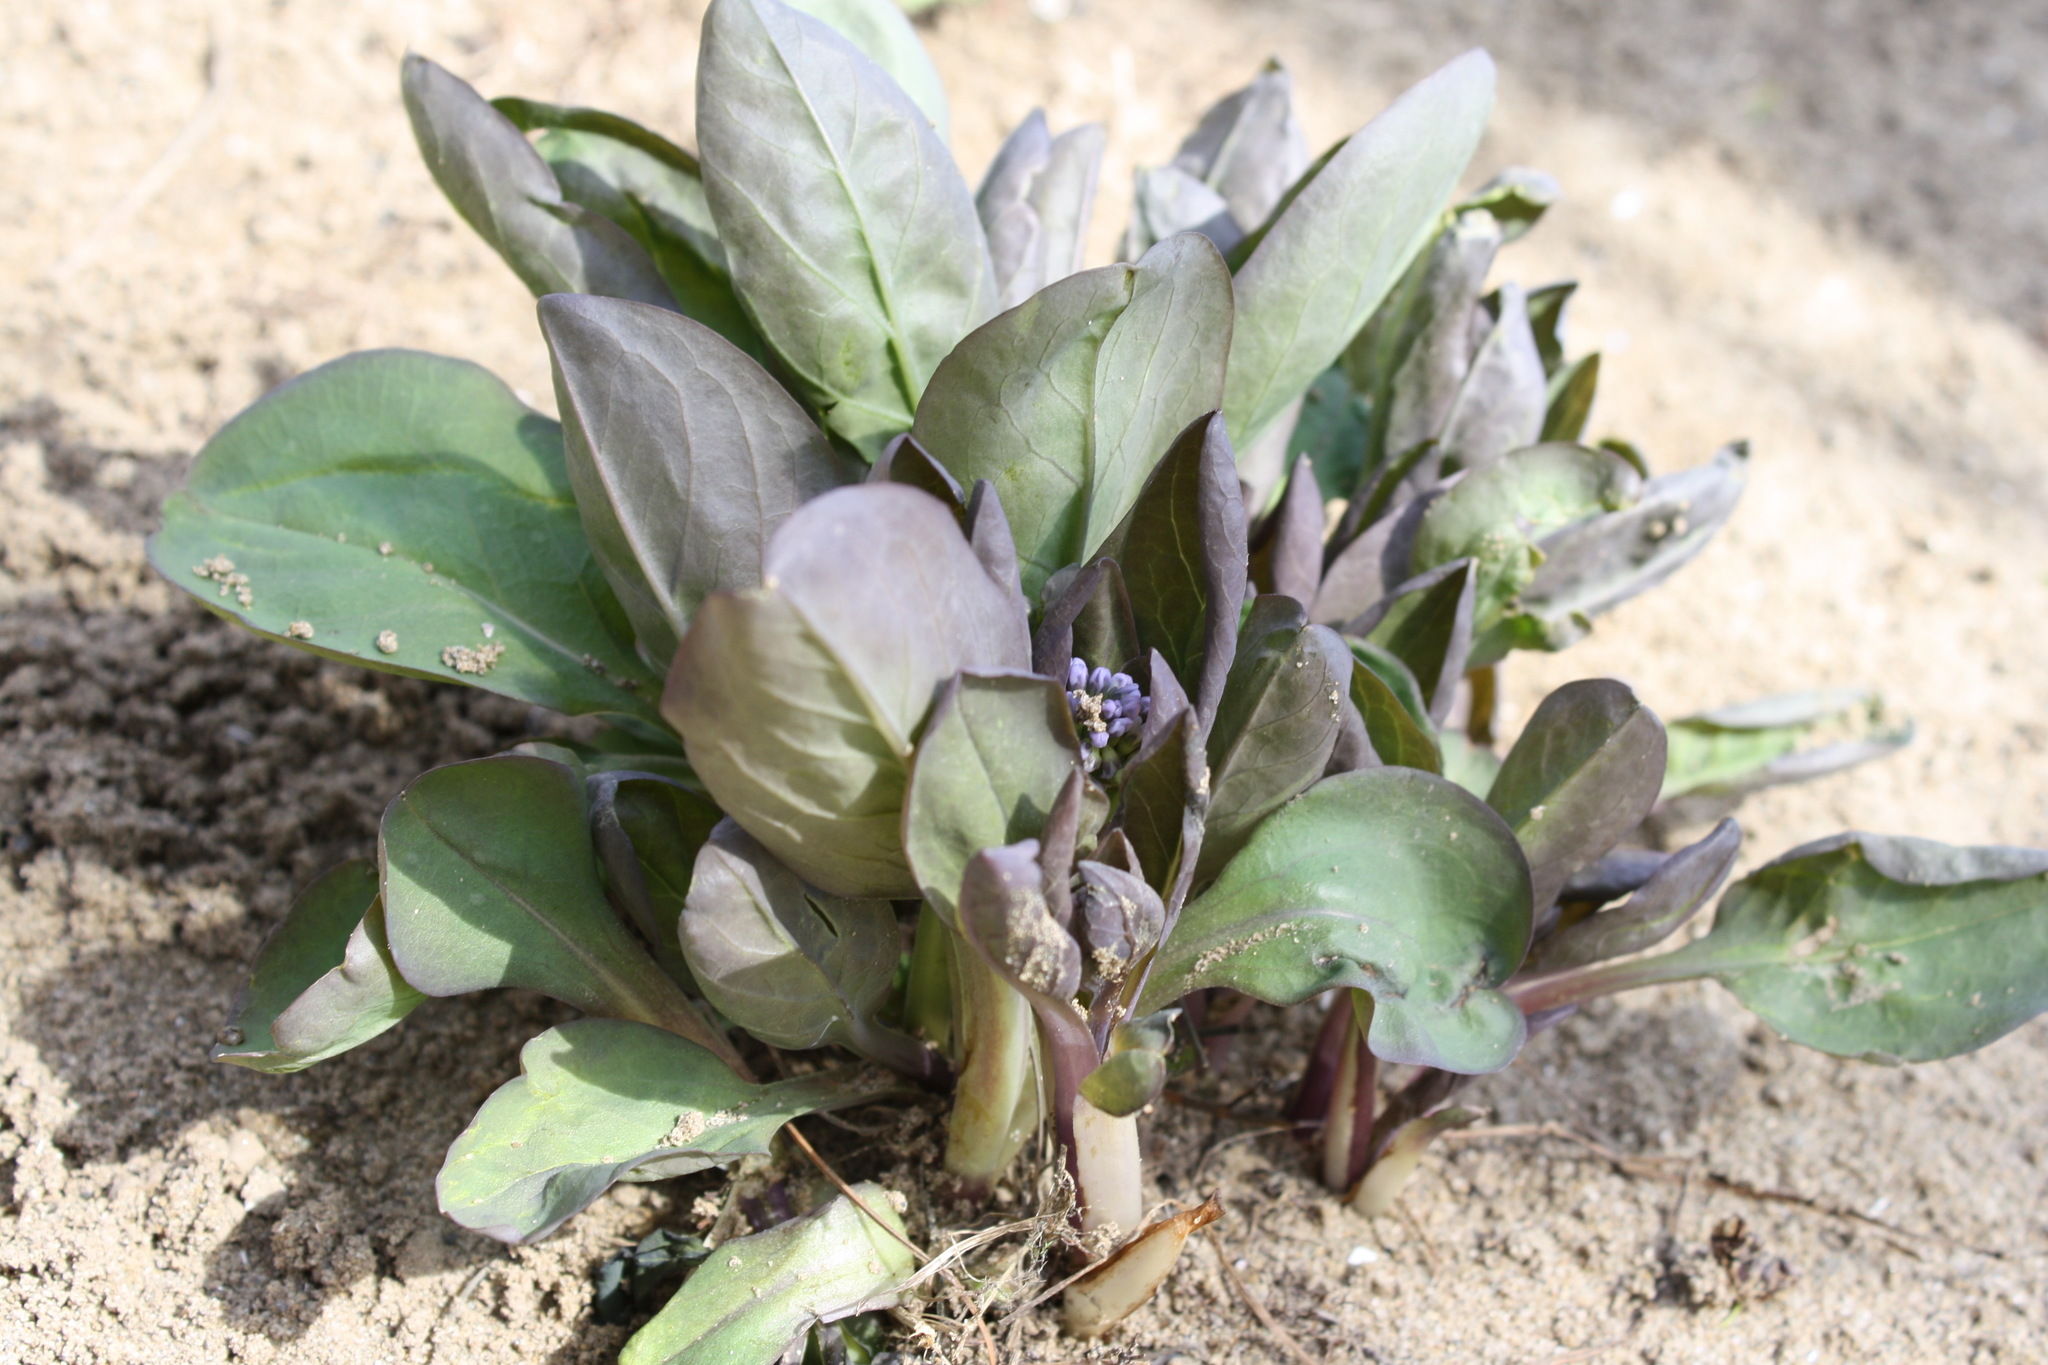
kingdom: Plantae
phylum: Tracheophyta
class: Magnoliopsida
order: Boraginales
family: Boraginaceae
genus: Mertensia
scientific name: Mertensia virginica
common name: Virginia bluebells
